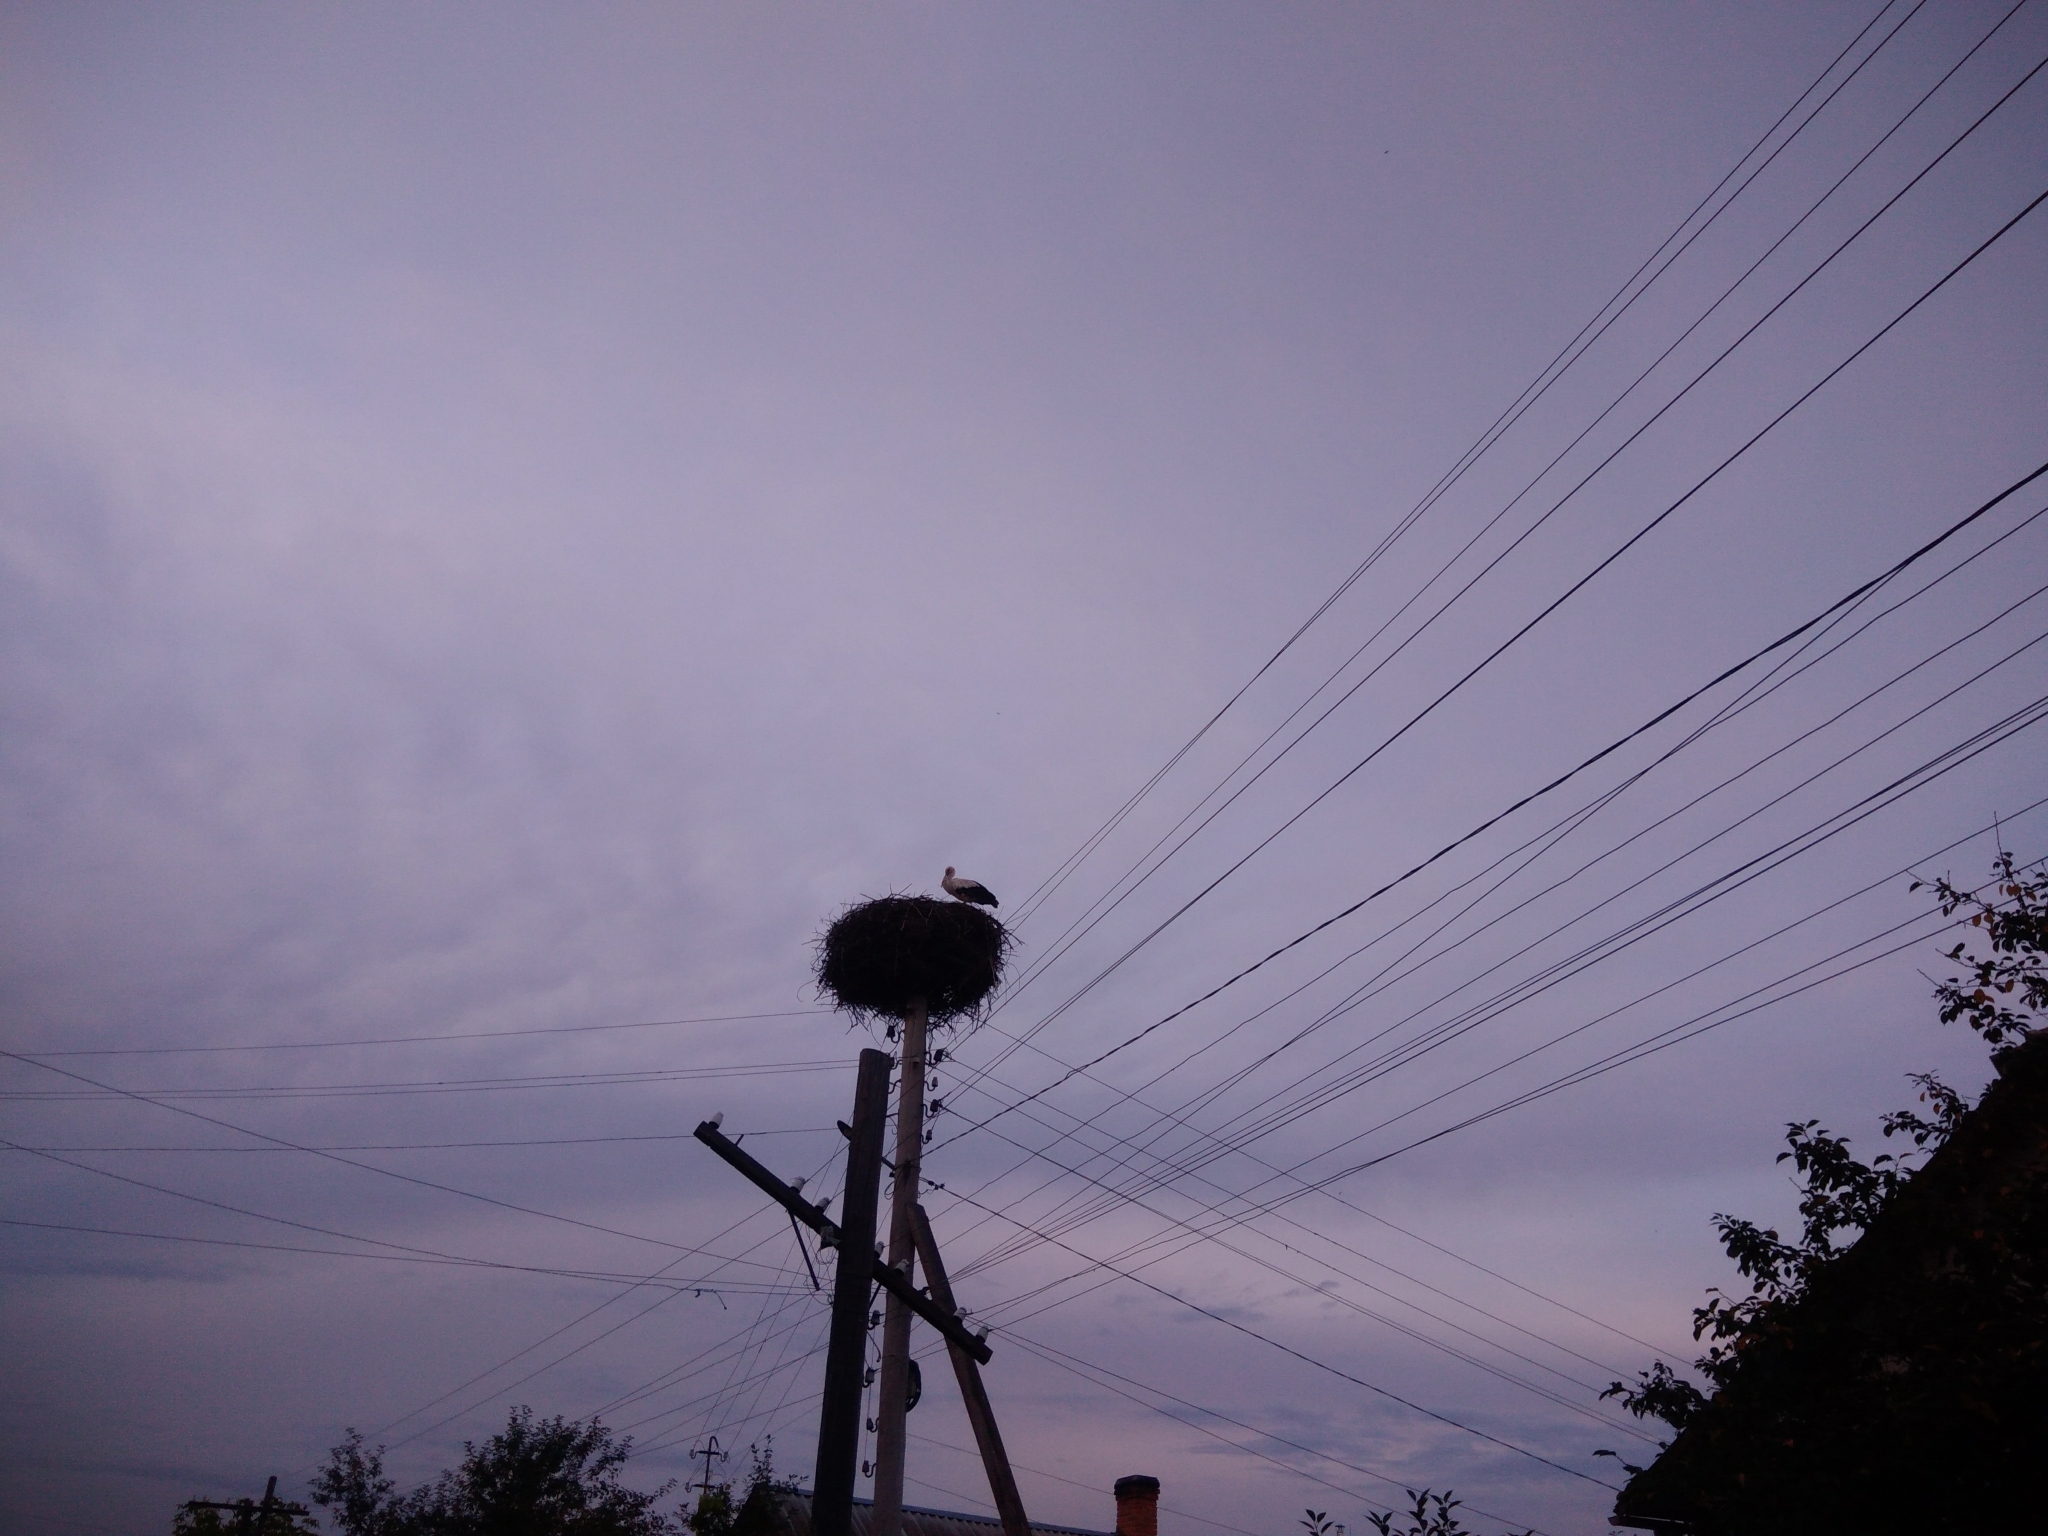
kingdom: Animalia
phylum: Chordata
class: Aves
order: Ciconiiformes
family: Ciconiidae
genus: Ciconia
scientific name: Ciconia ciconia
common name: White stork
